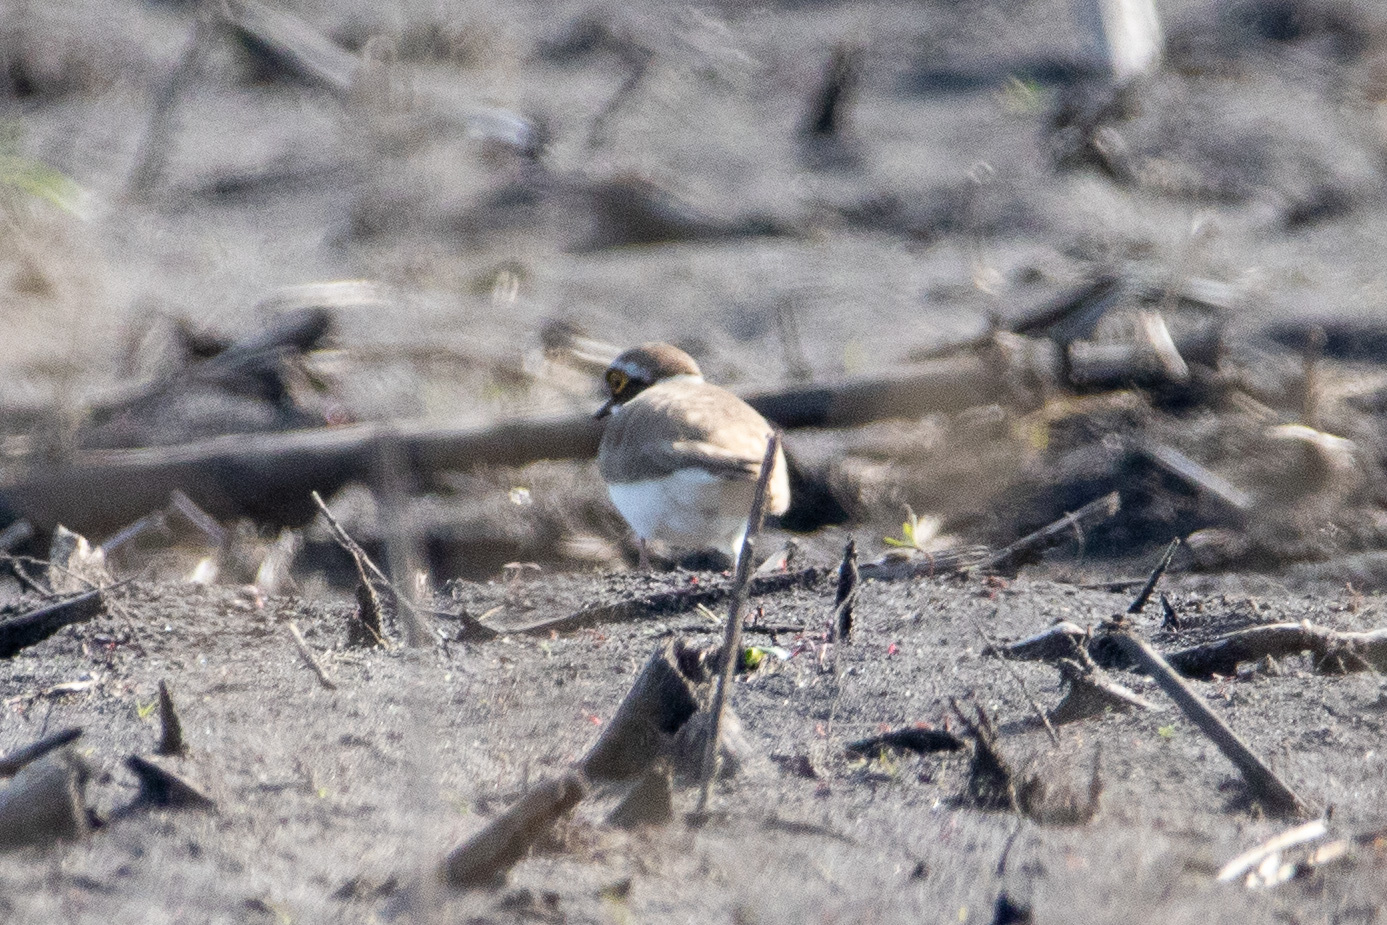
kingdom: Animalia
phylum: Chordata
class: Aves
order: Charadriiformes
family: Charadriidae
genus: Charadrius
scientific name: Charadrius dubius
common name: Little ringed plover
